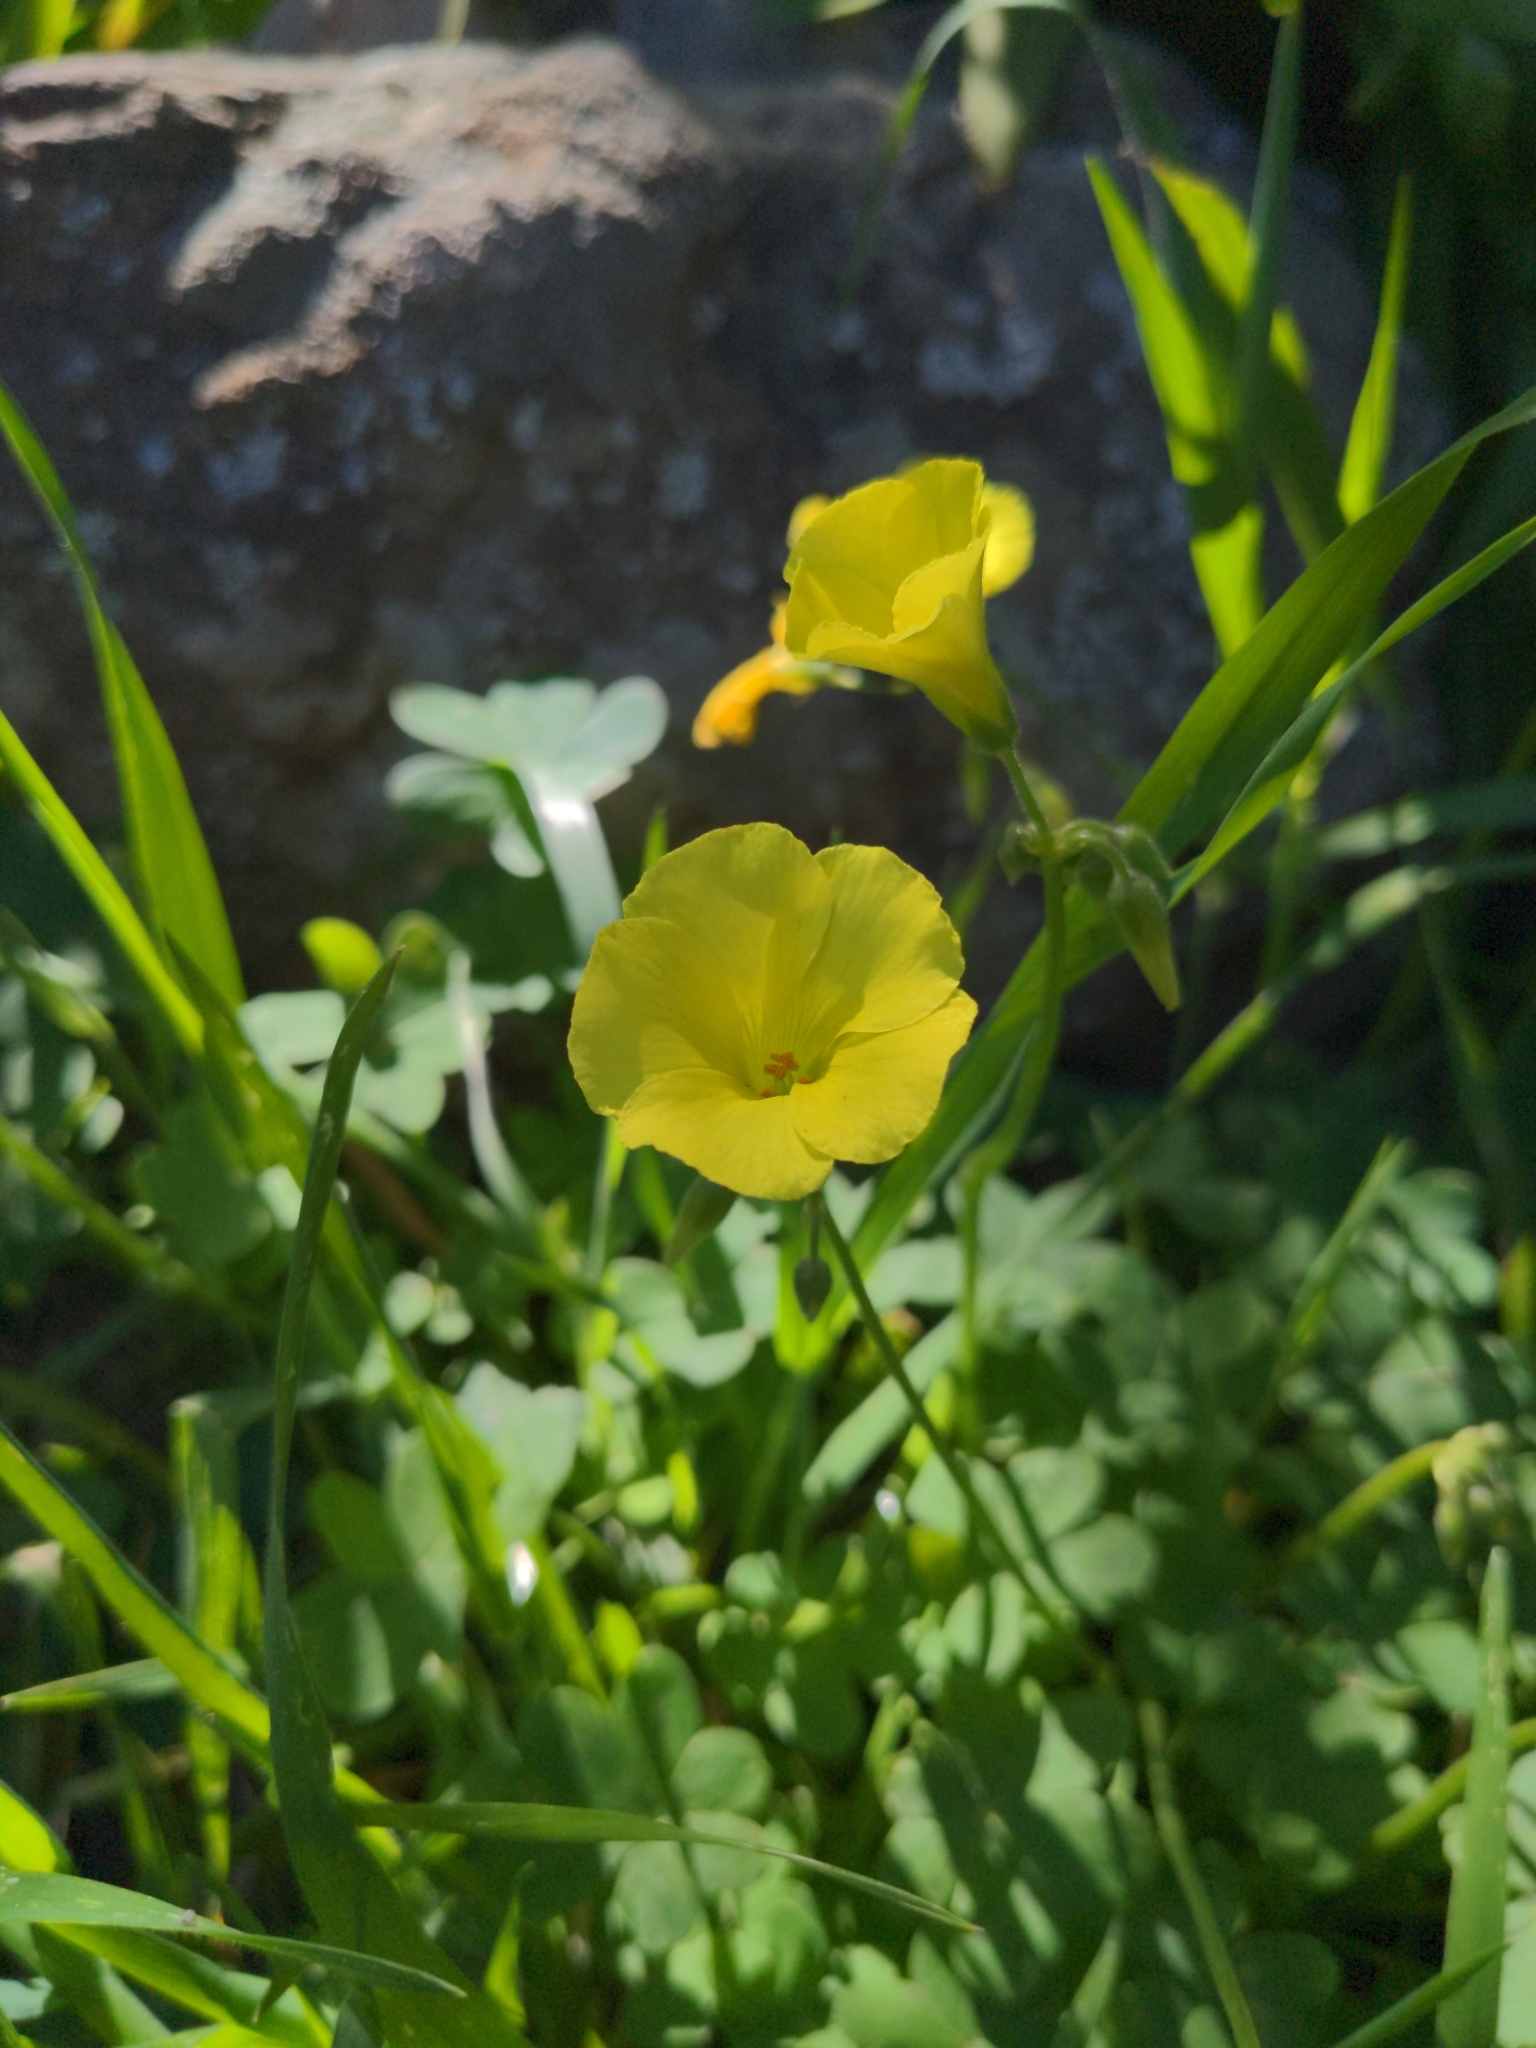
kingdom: Plantae
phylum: Tracheophyta
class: Magnoliopsida
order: Oxalidales
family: Oxalidaceae
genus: Oxalis
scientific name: Oxalis pes-caprae
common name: Bermuda-buttercup
